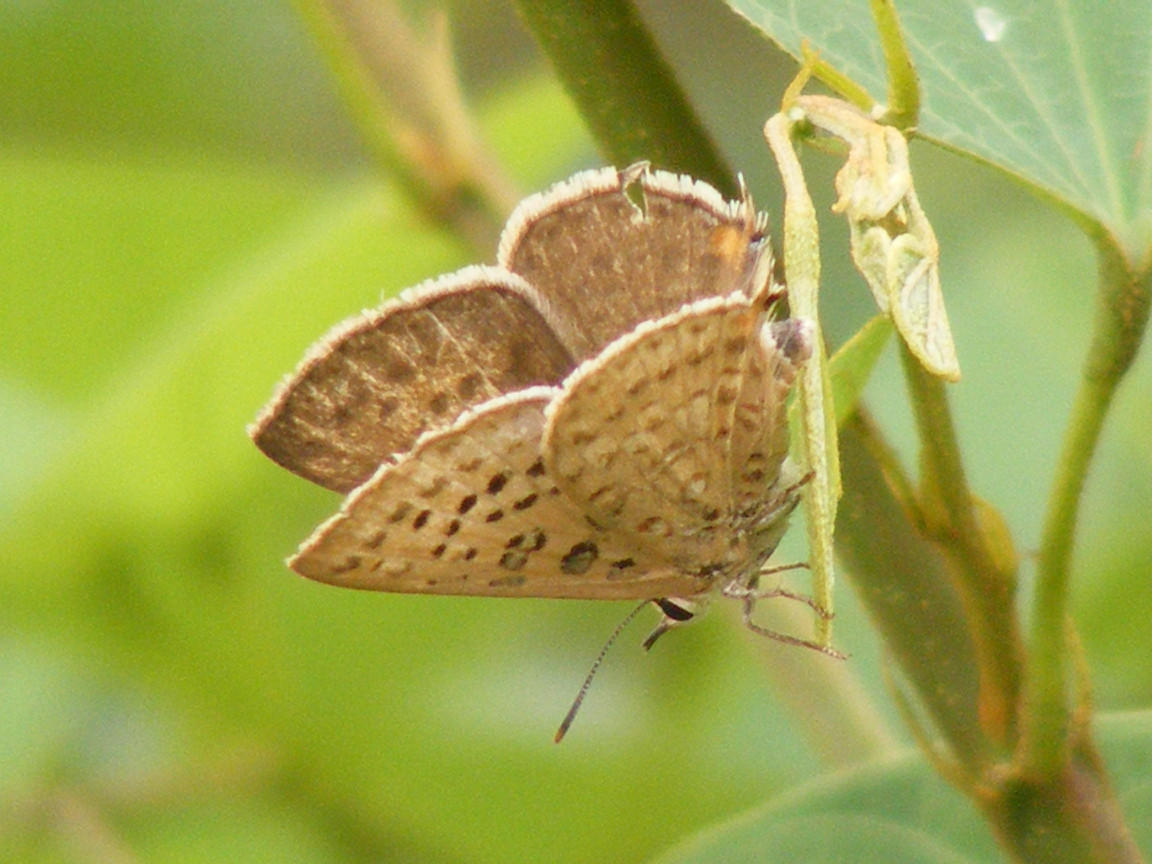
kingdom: Animalia
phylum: Arthropoda
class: Insecta
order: Lepidoptera
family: Lycaenidae
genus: Crudaria
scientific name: Crudaria leroma
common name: Silver spotted grey
